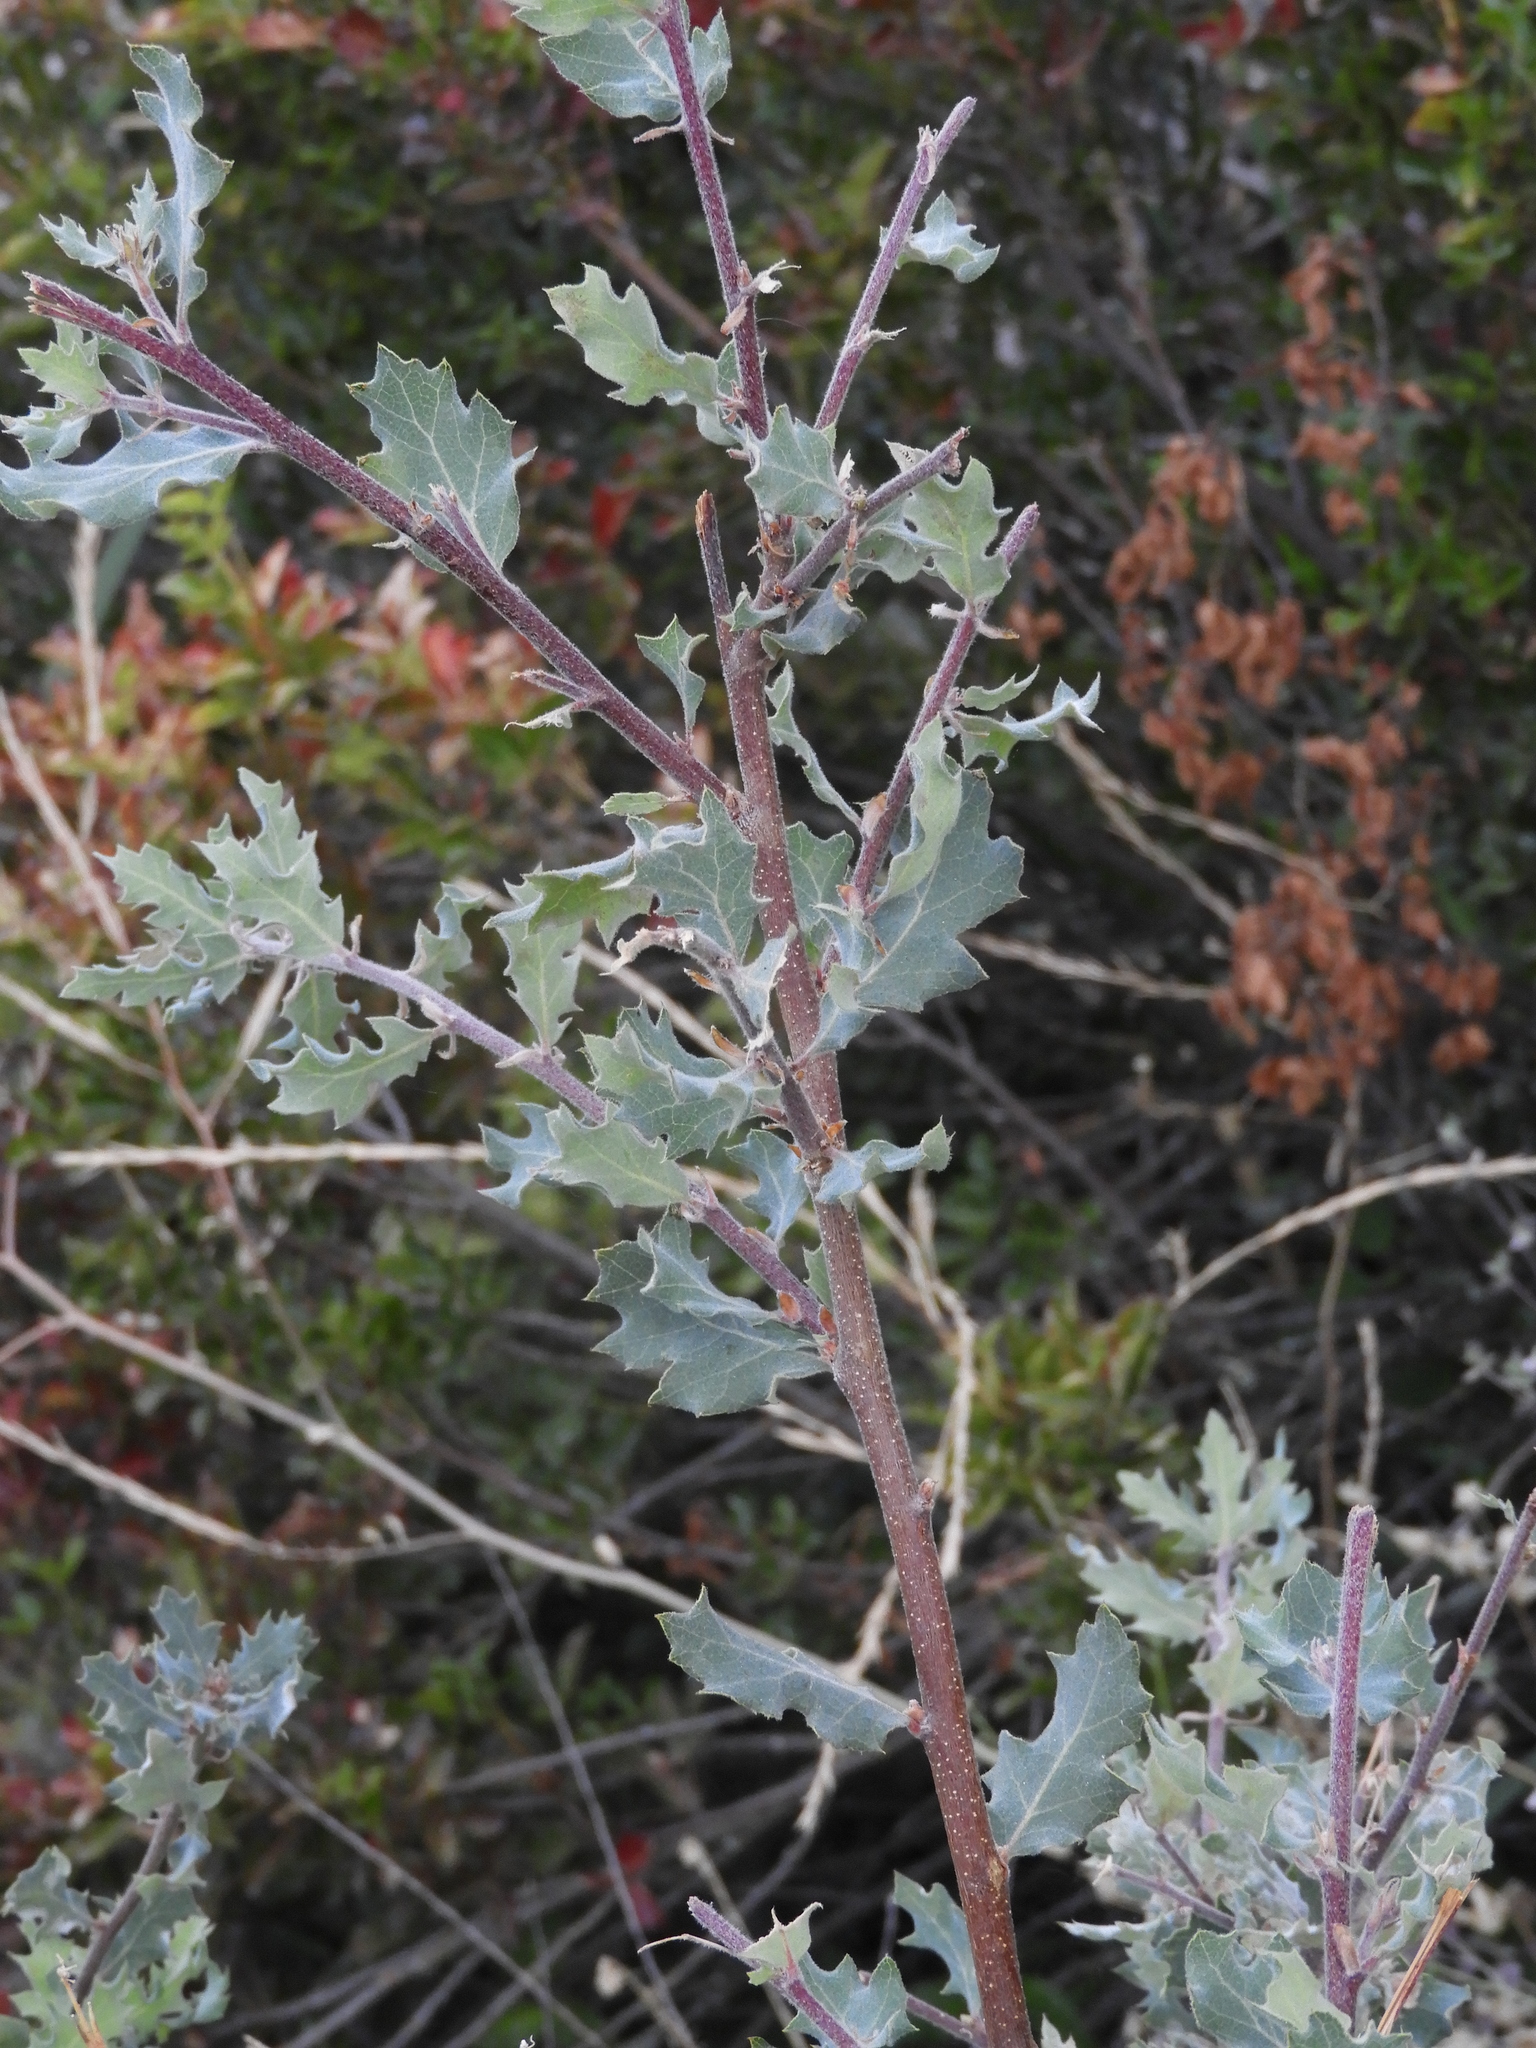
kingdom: Plantae
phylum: Tracheophyta
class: Magnoliopsida
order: Fagales
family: Fagaceae
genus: Quercus
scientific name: Quercus douglasii
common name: Blue oak
